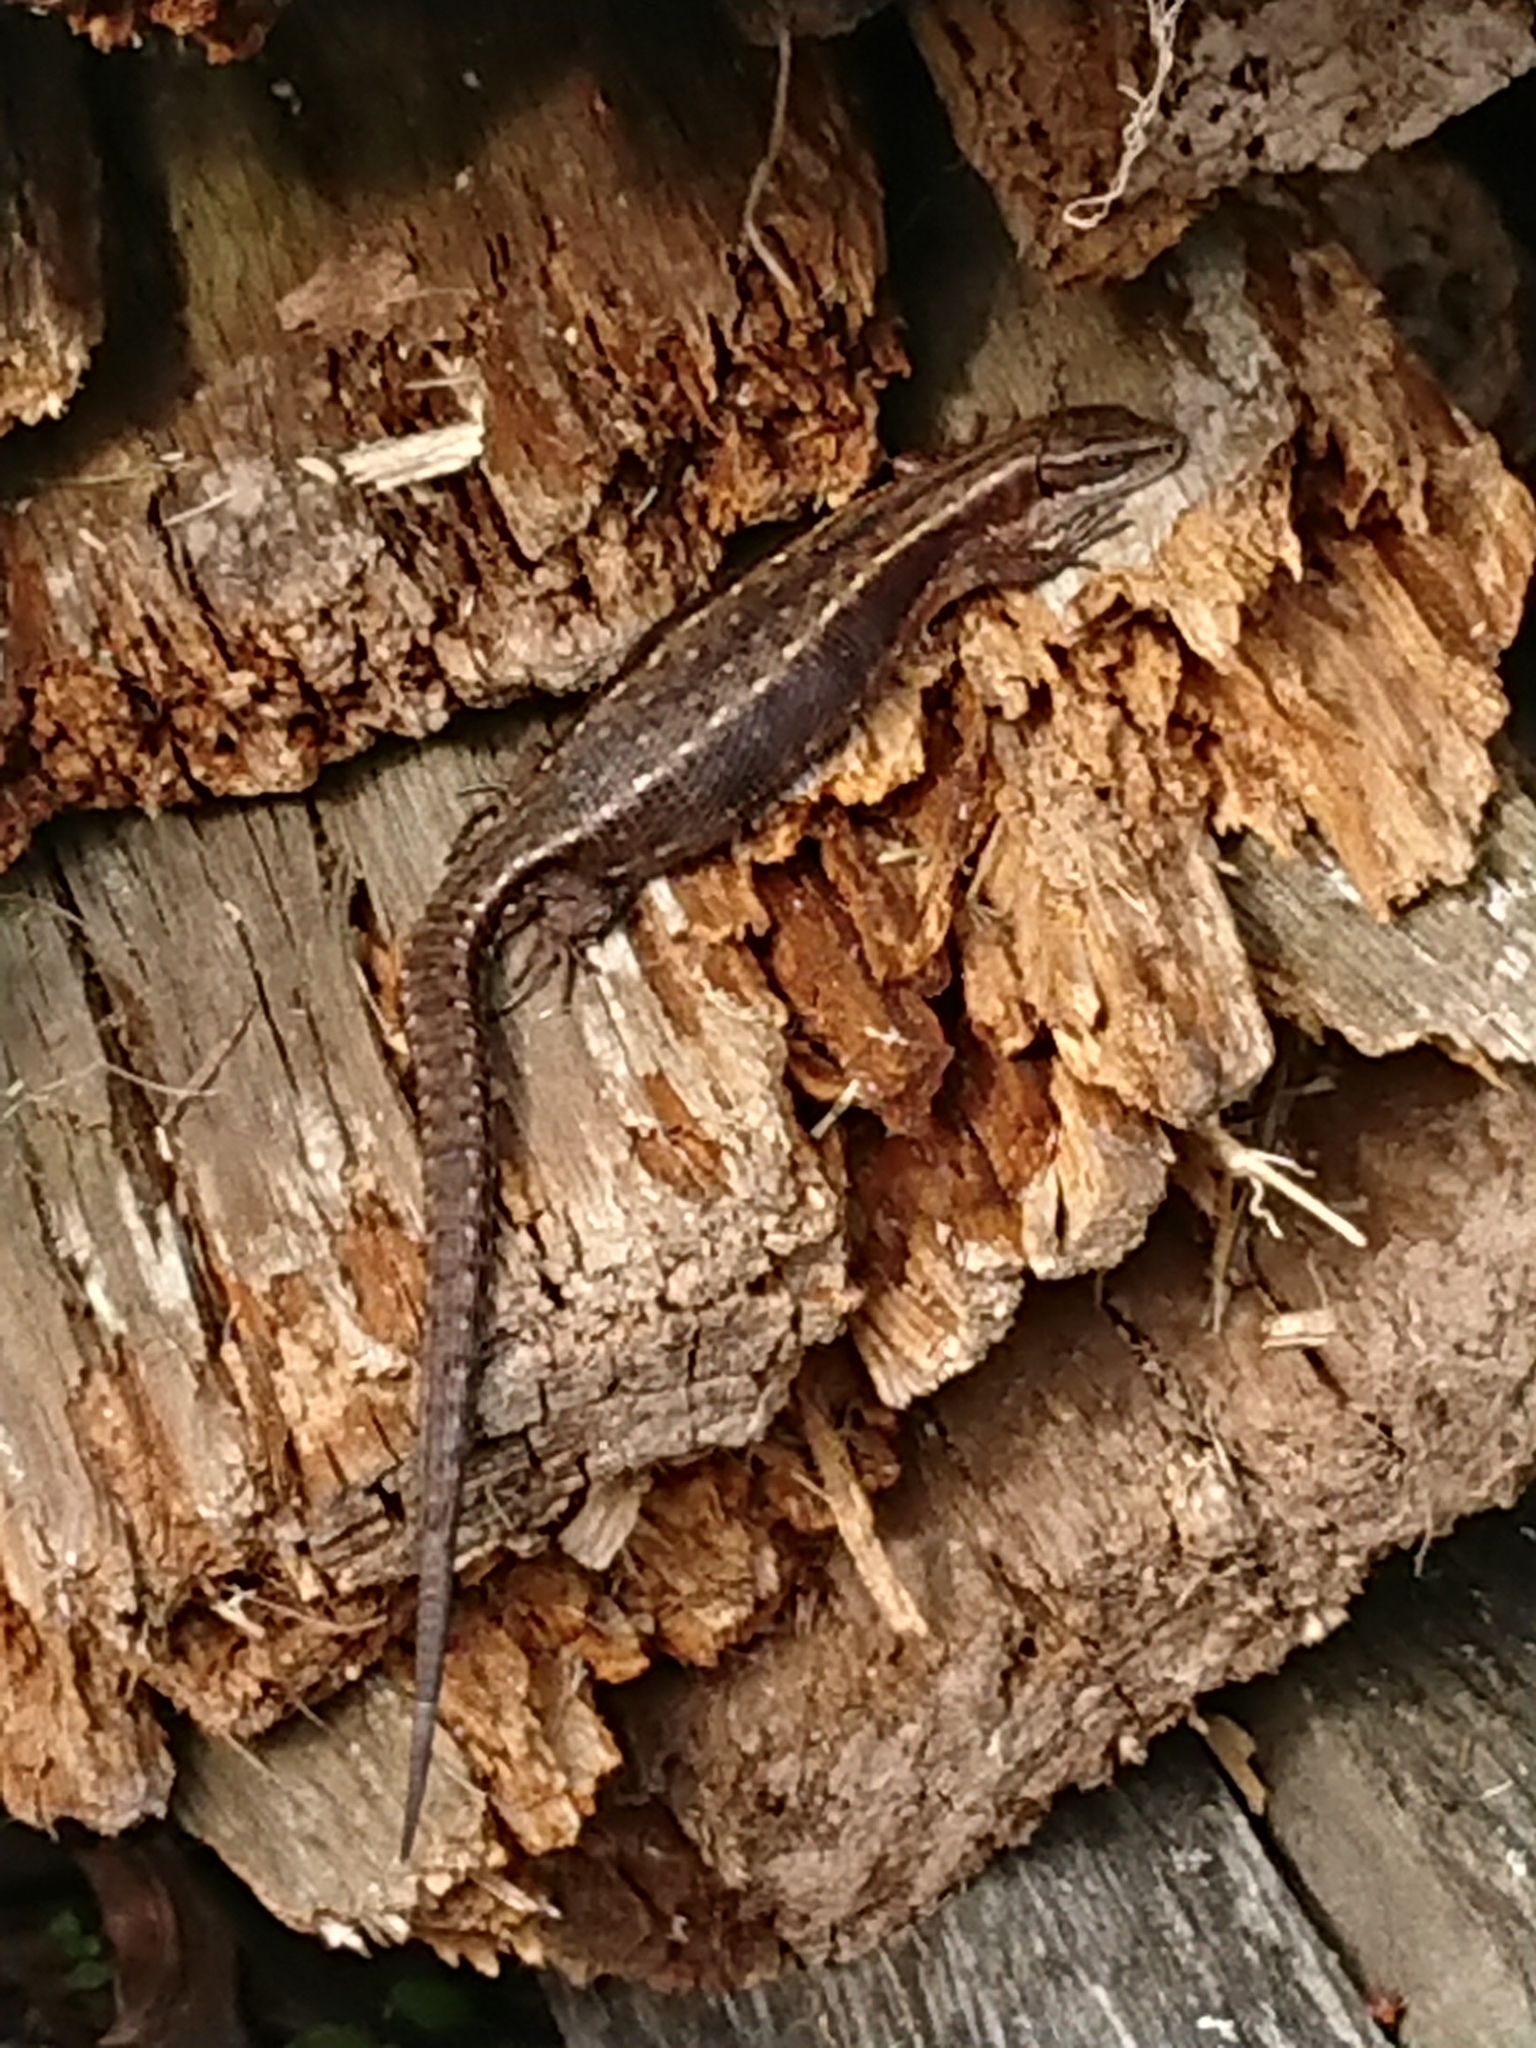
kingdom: Animalia
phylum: Chordata
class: Squamata
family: Lacertidae
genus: Zootoca
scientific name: Zootoca vivipara
